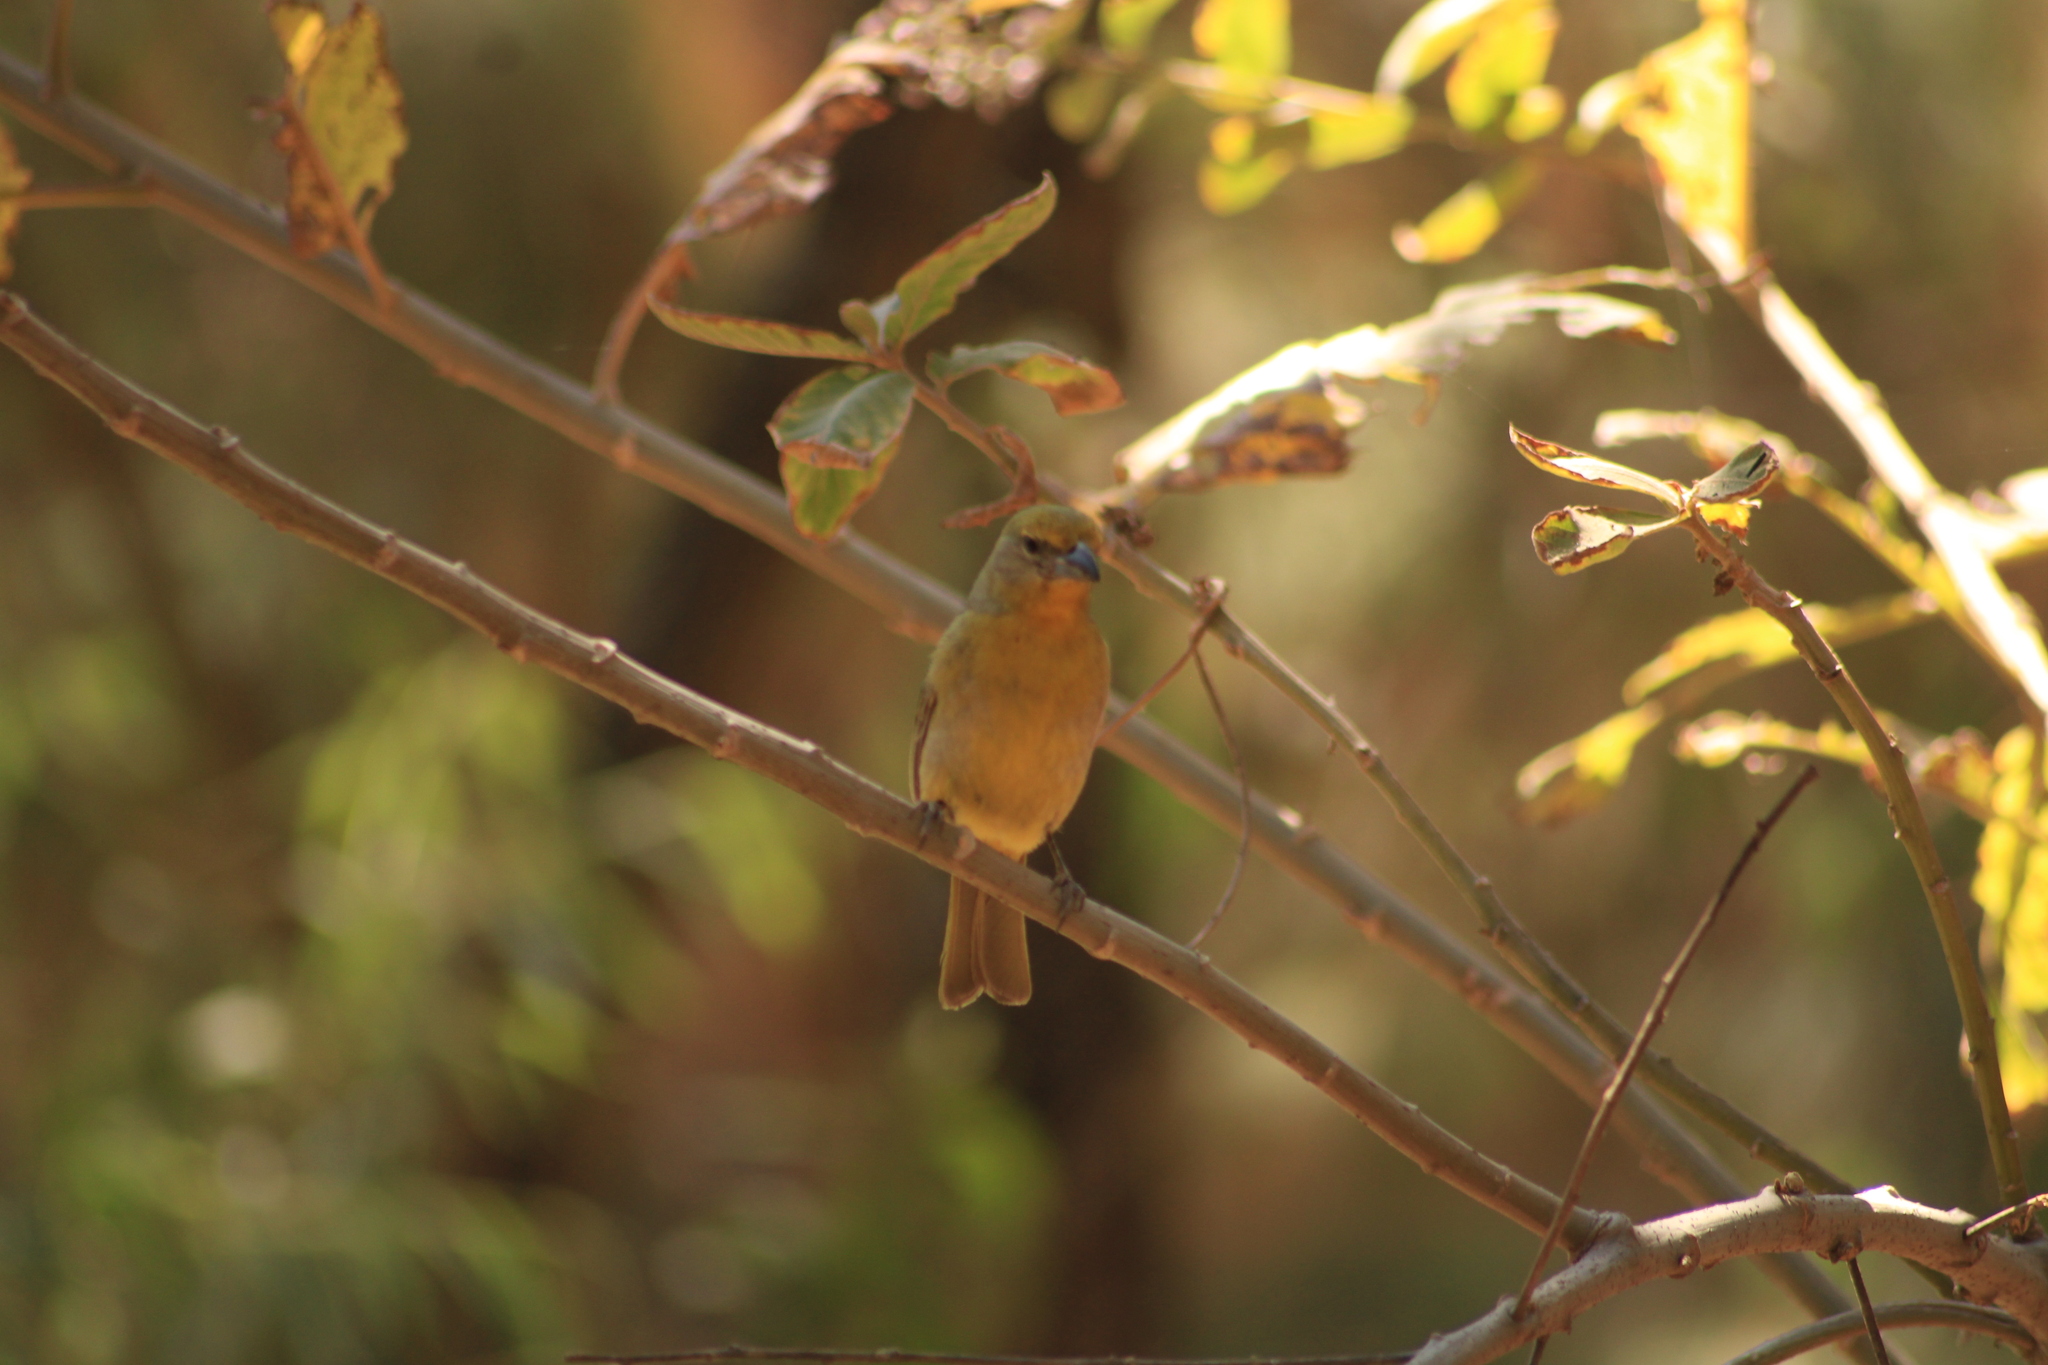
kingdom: Animalia
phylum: Chordata
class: Aves
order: Passeriformes
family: Cardinalidae
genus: Piranga
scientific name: Piranga flava
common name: Red tanager
